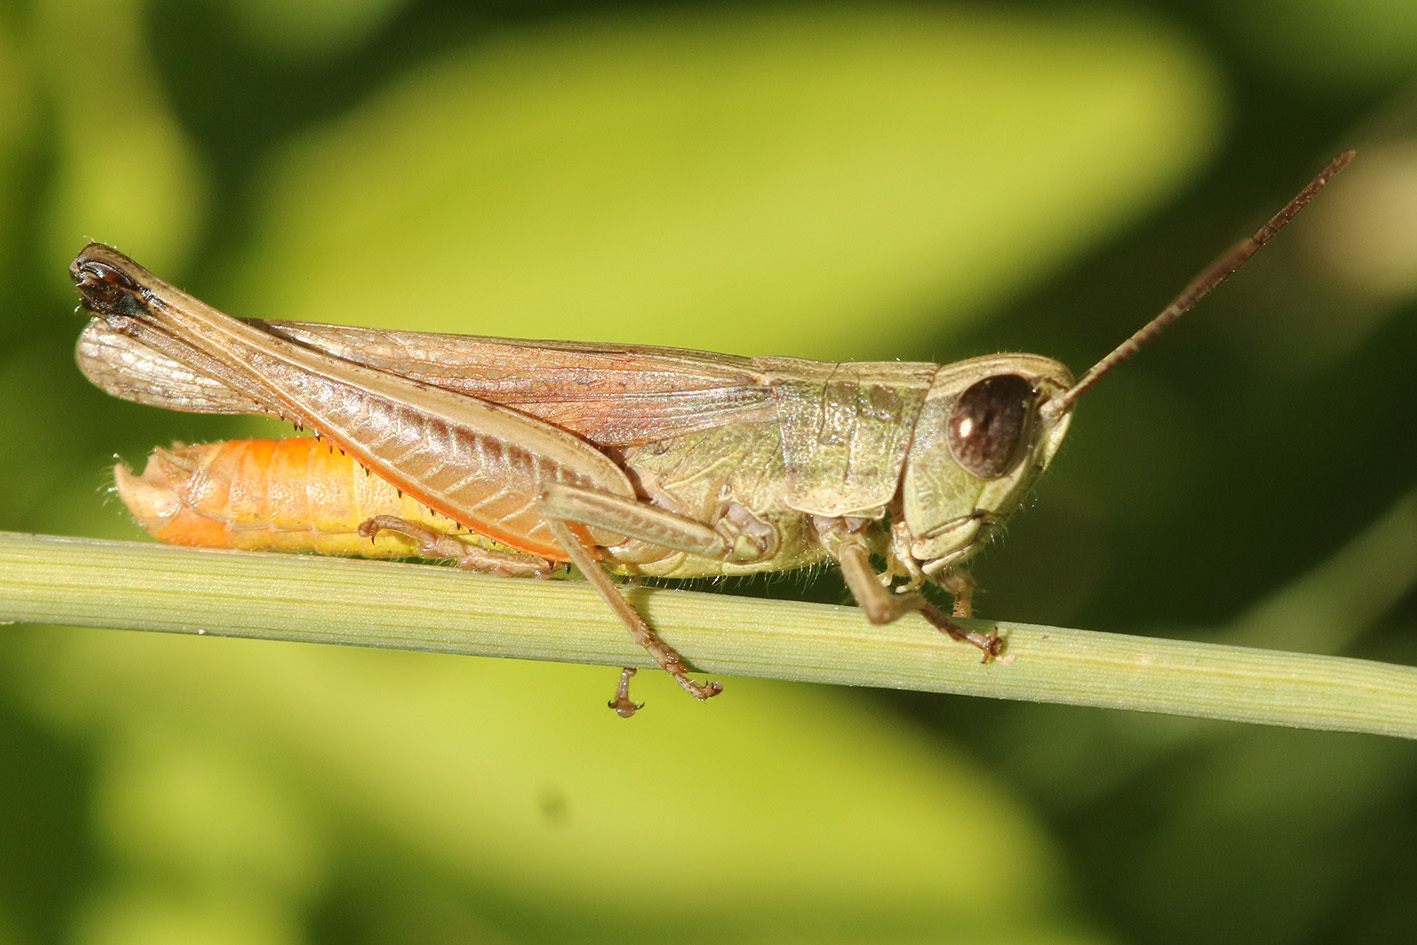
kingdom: Animalia
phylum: Arthropoda
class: Insecta
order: Orthoptera
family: Acrididae
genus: Amblytropidia
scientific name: Amblytropidia australis
